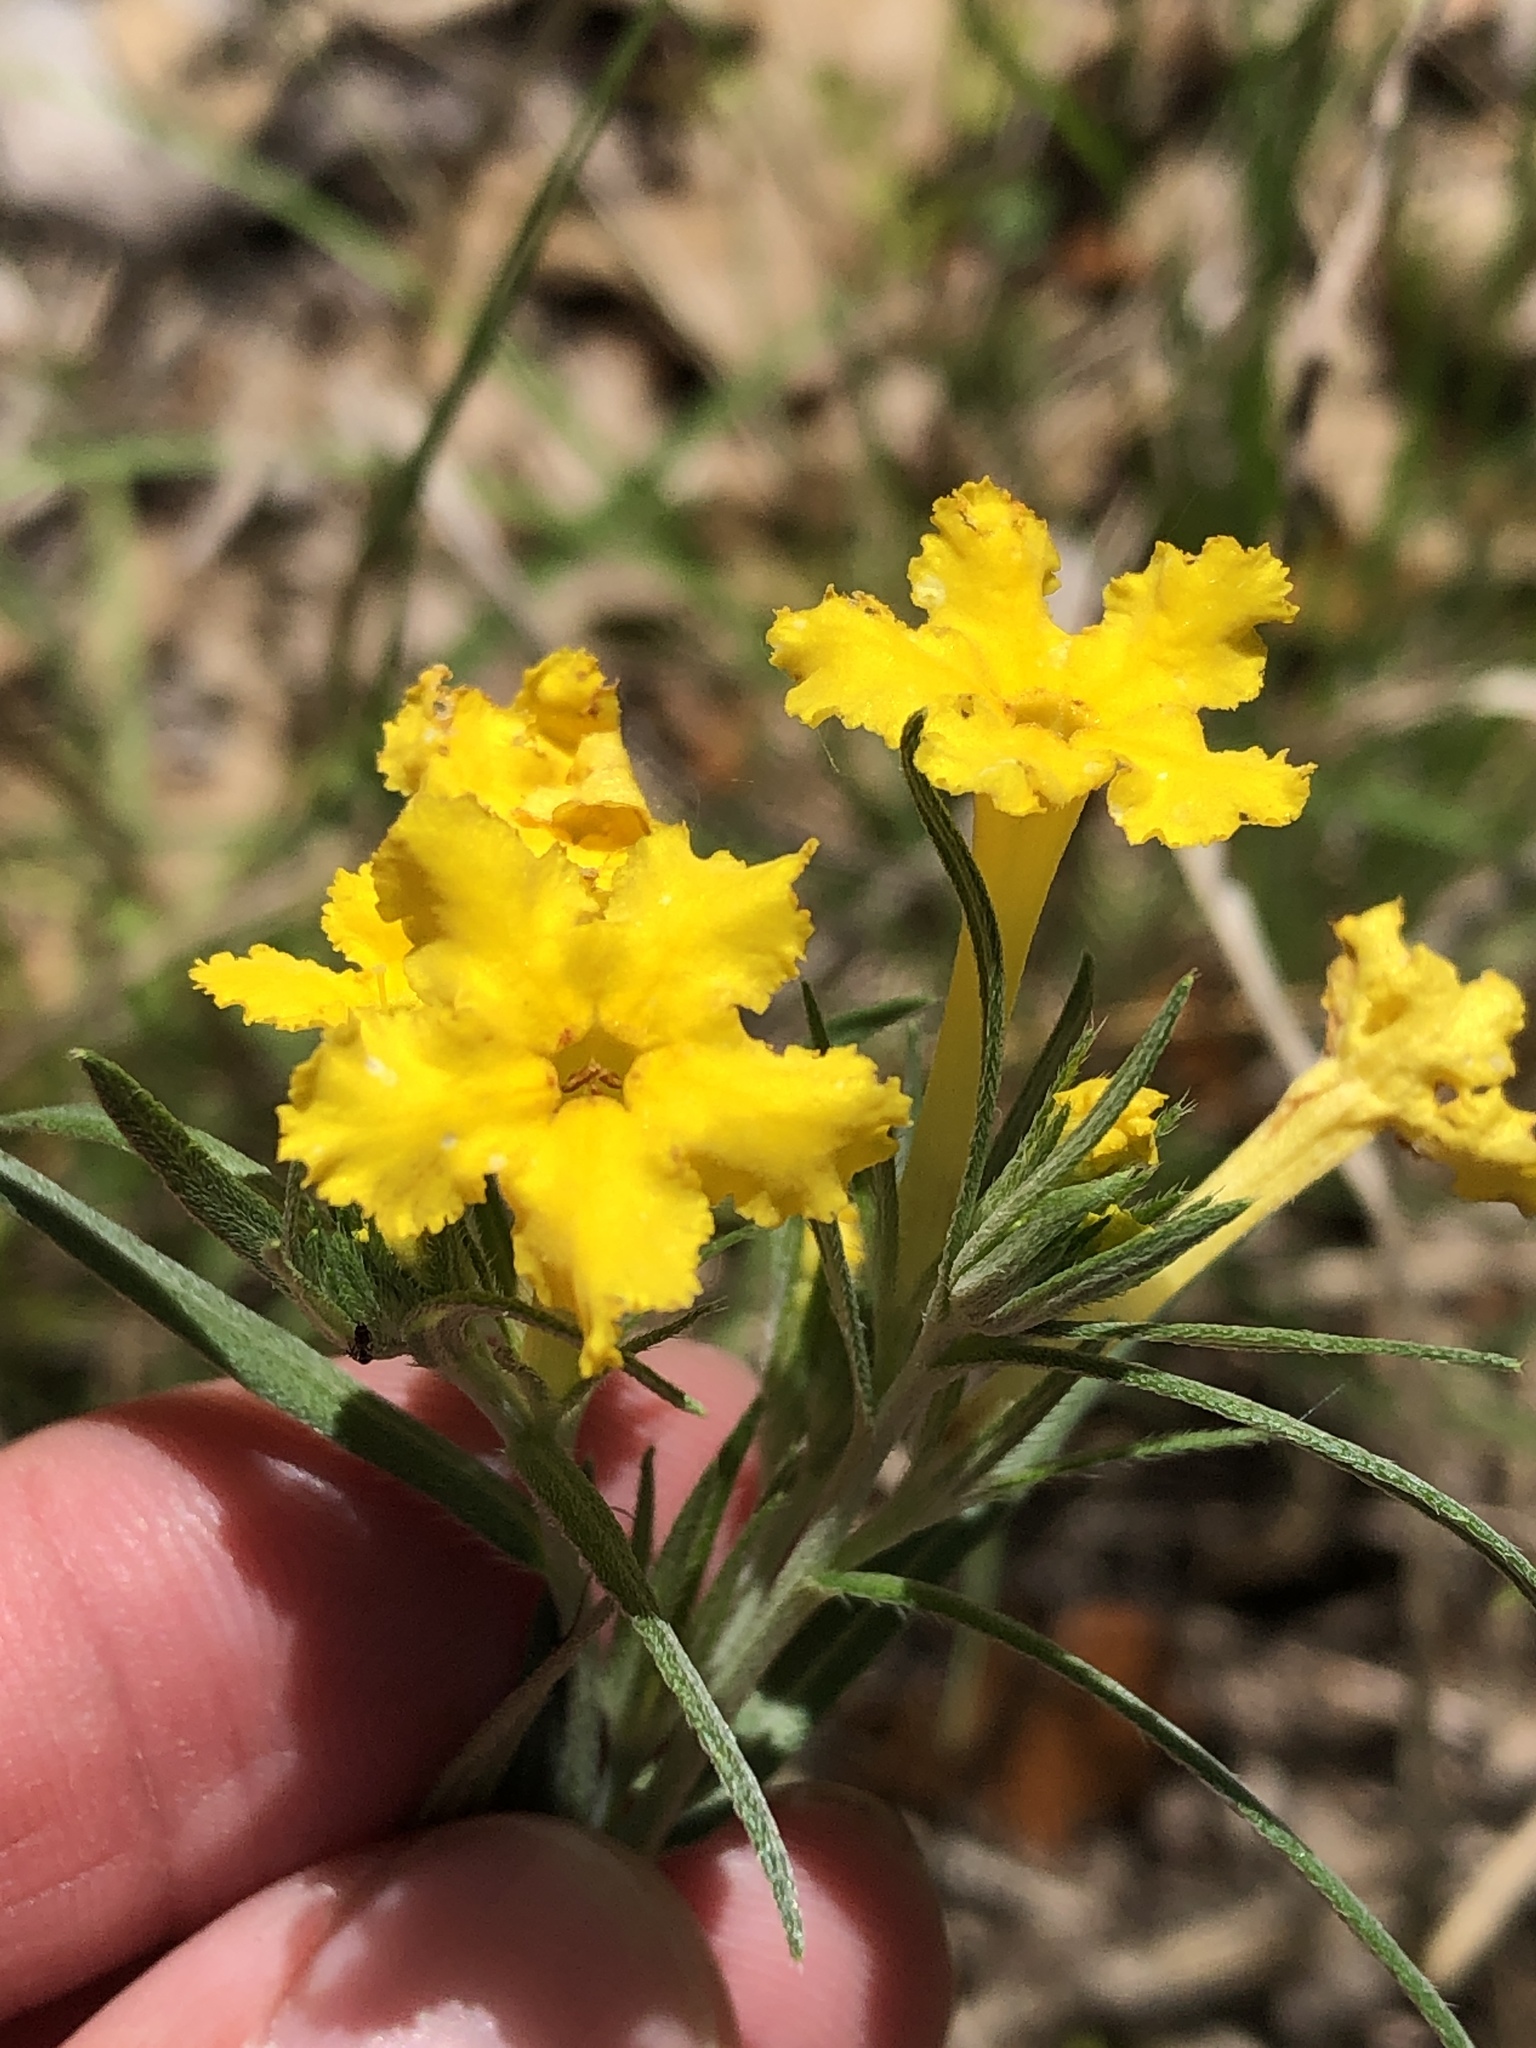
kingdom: Plantae
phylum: Tracheophyta
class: Magnoliopsida
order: Boraginales
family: Boraginaceae
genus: Lithospermum
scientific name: Lithospermum incisum
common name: Fringed gromwell
